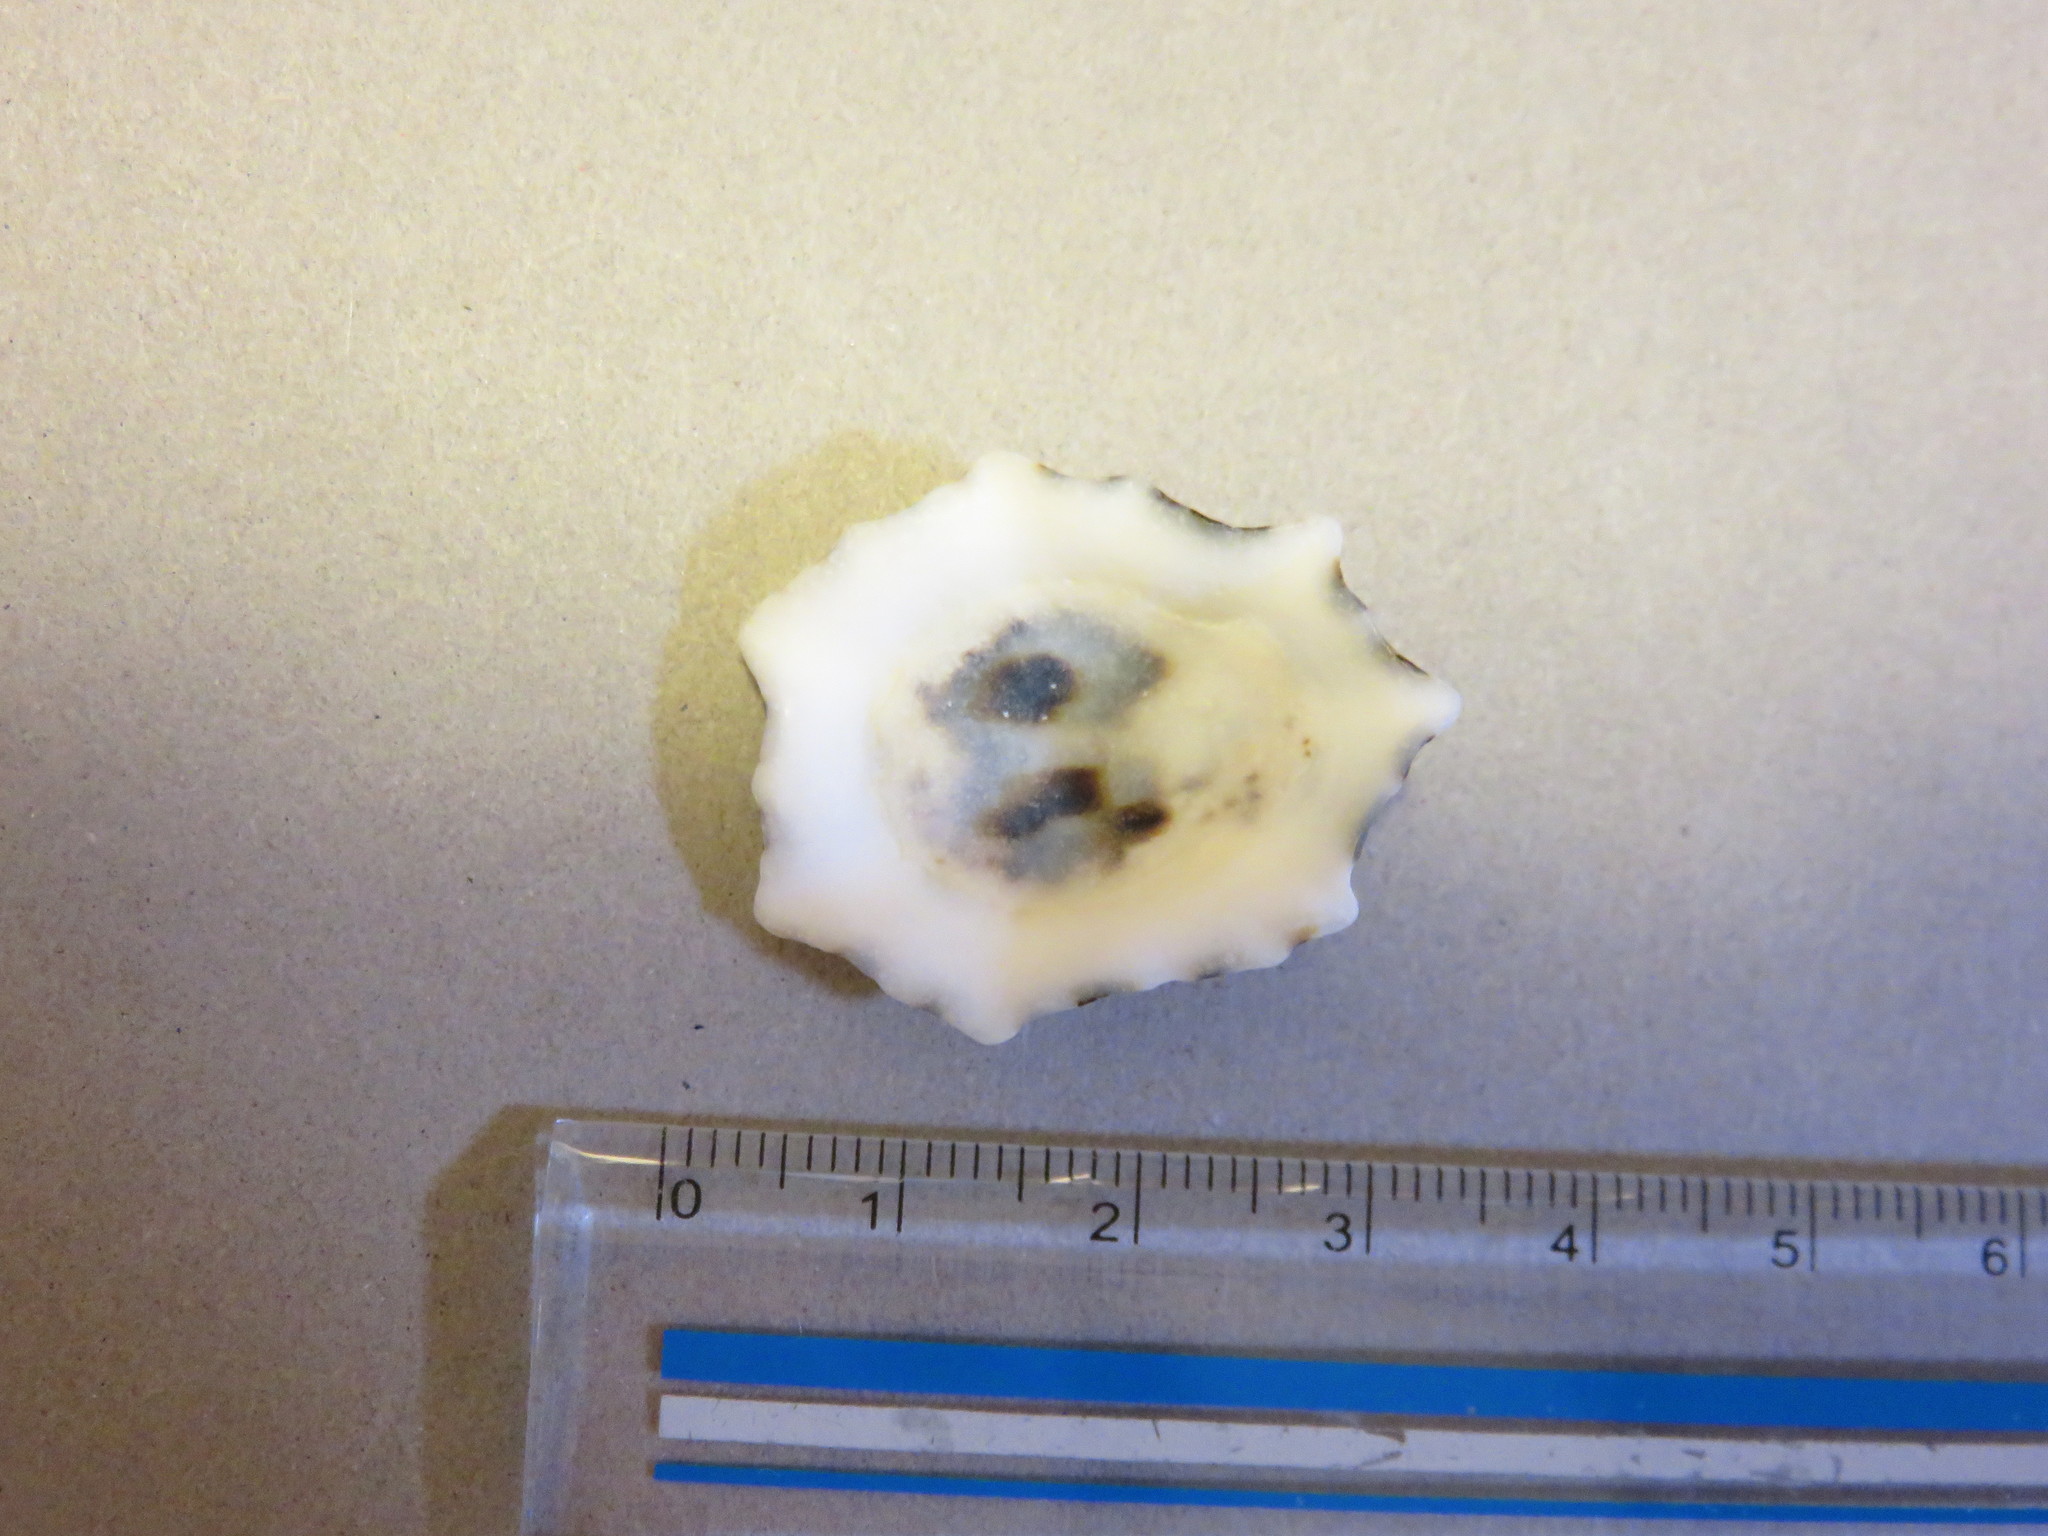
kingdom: Animalia
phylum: Mollusca
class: Gastropoda
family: Lottiidae
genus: Patelloida
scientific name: Patelloida saccharina
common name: Pacific sugar limpet
